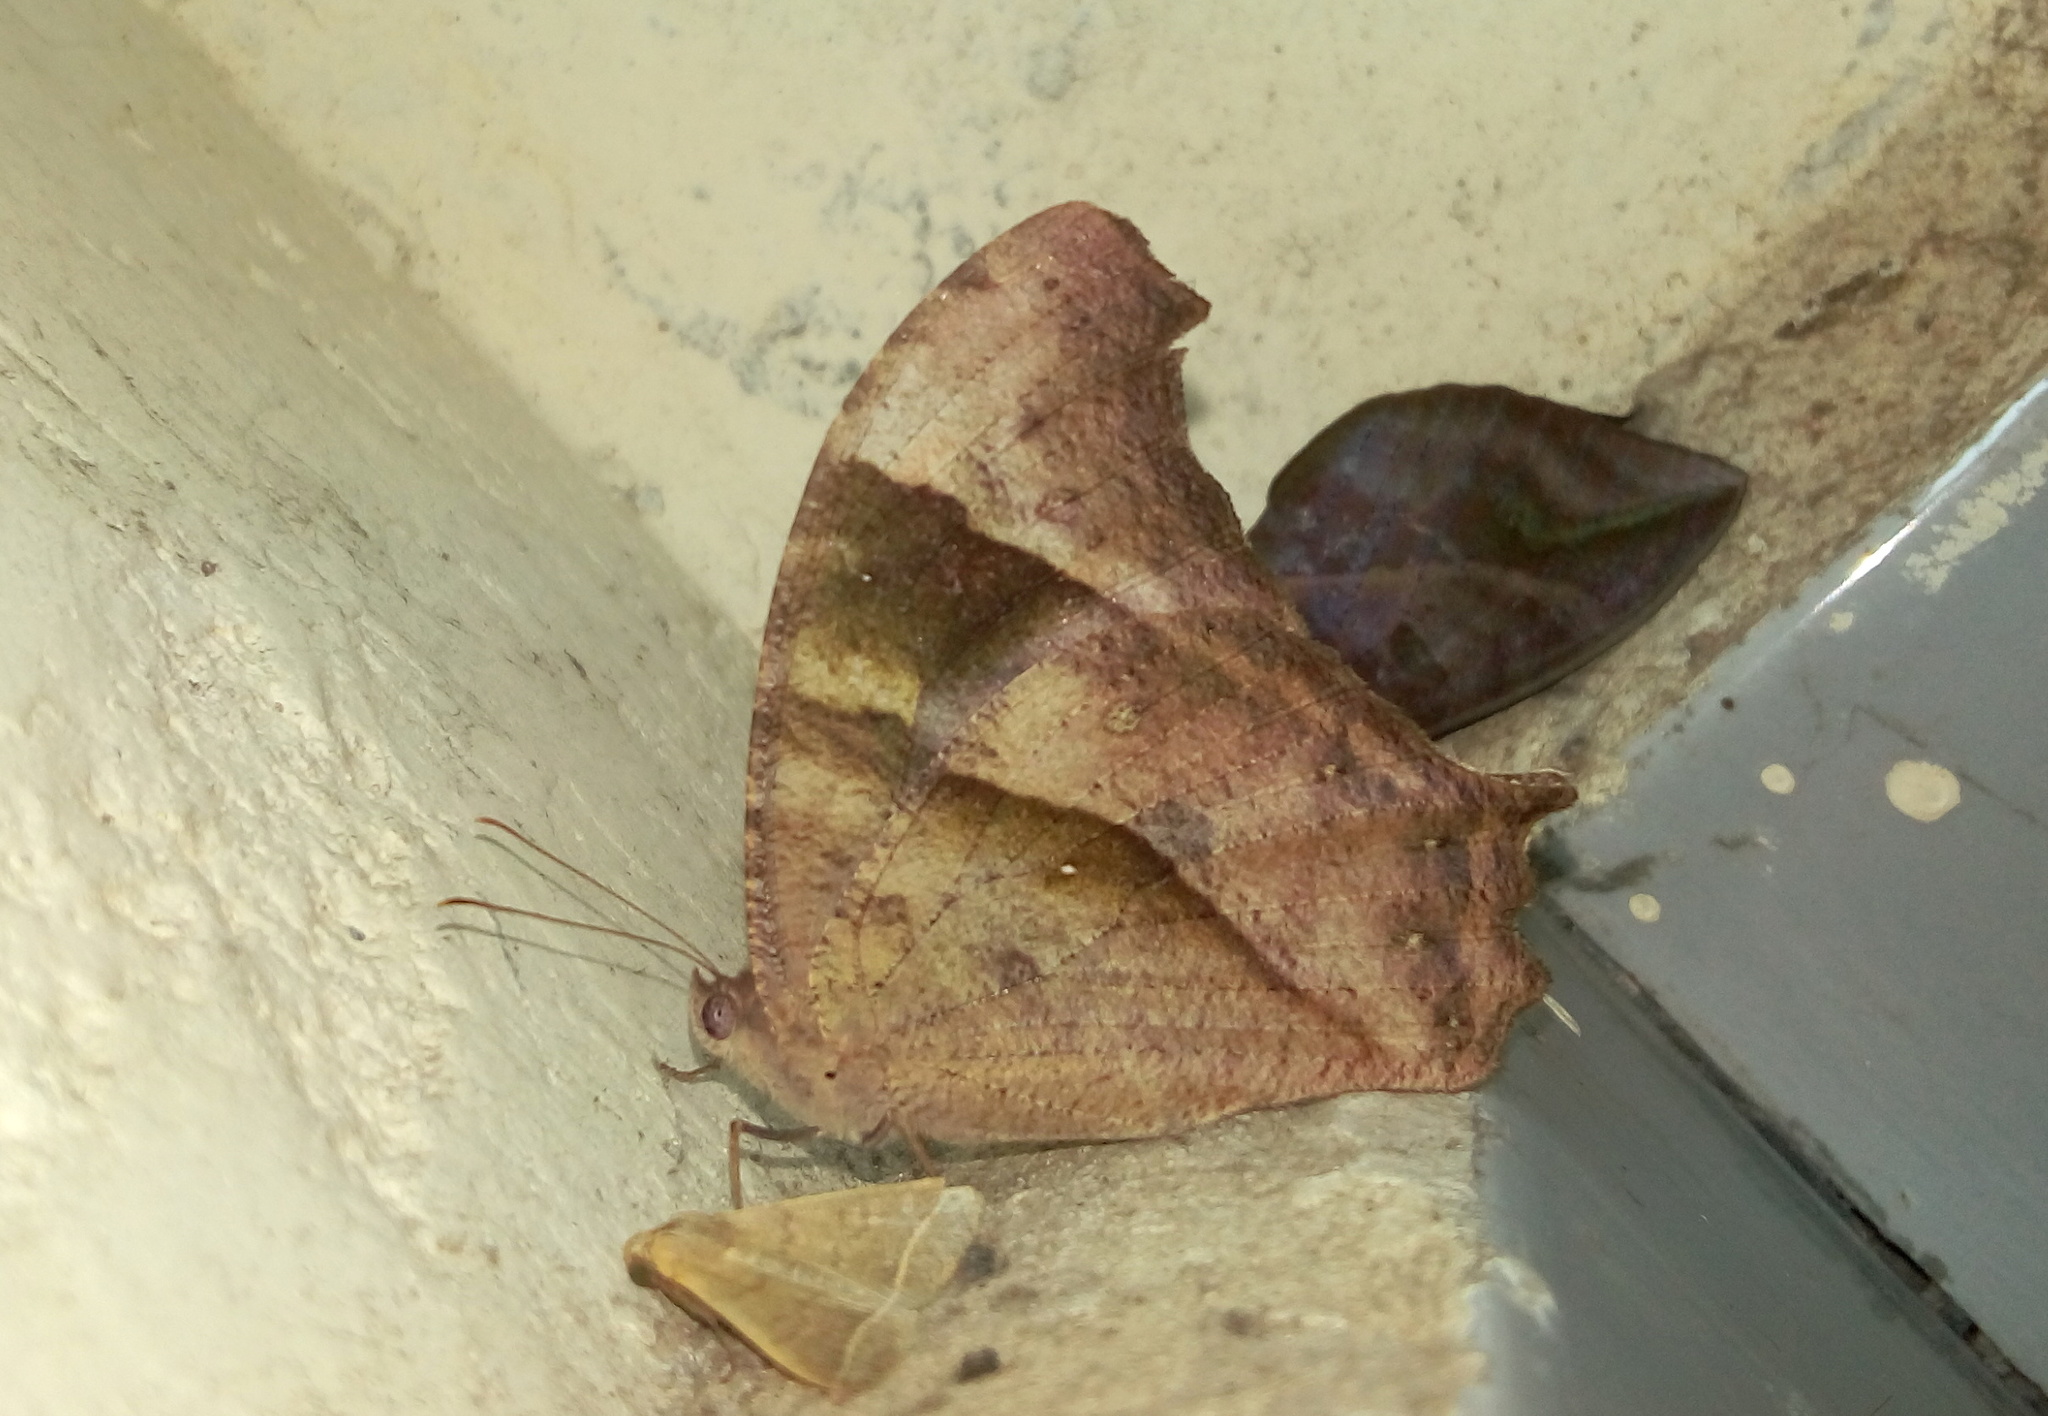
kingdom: Animalia
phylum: Arthropoda
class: Insecta
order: Lepidoptera
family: Nymphalidae
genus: Melanitis
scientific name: Melanitis leda
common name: Twilight brown
